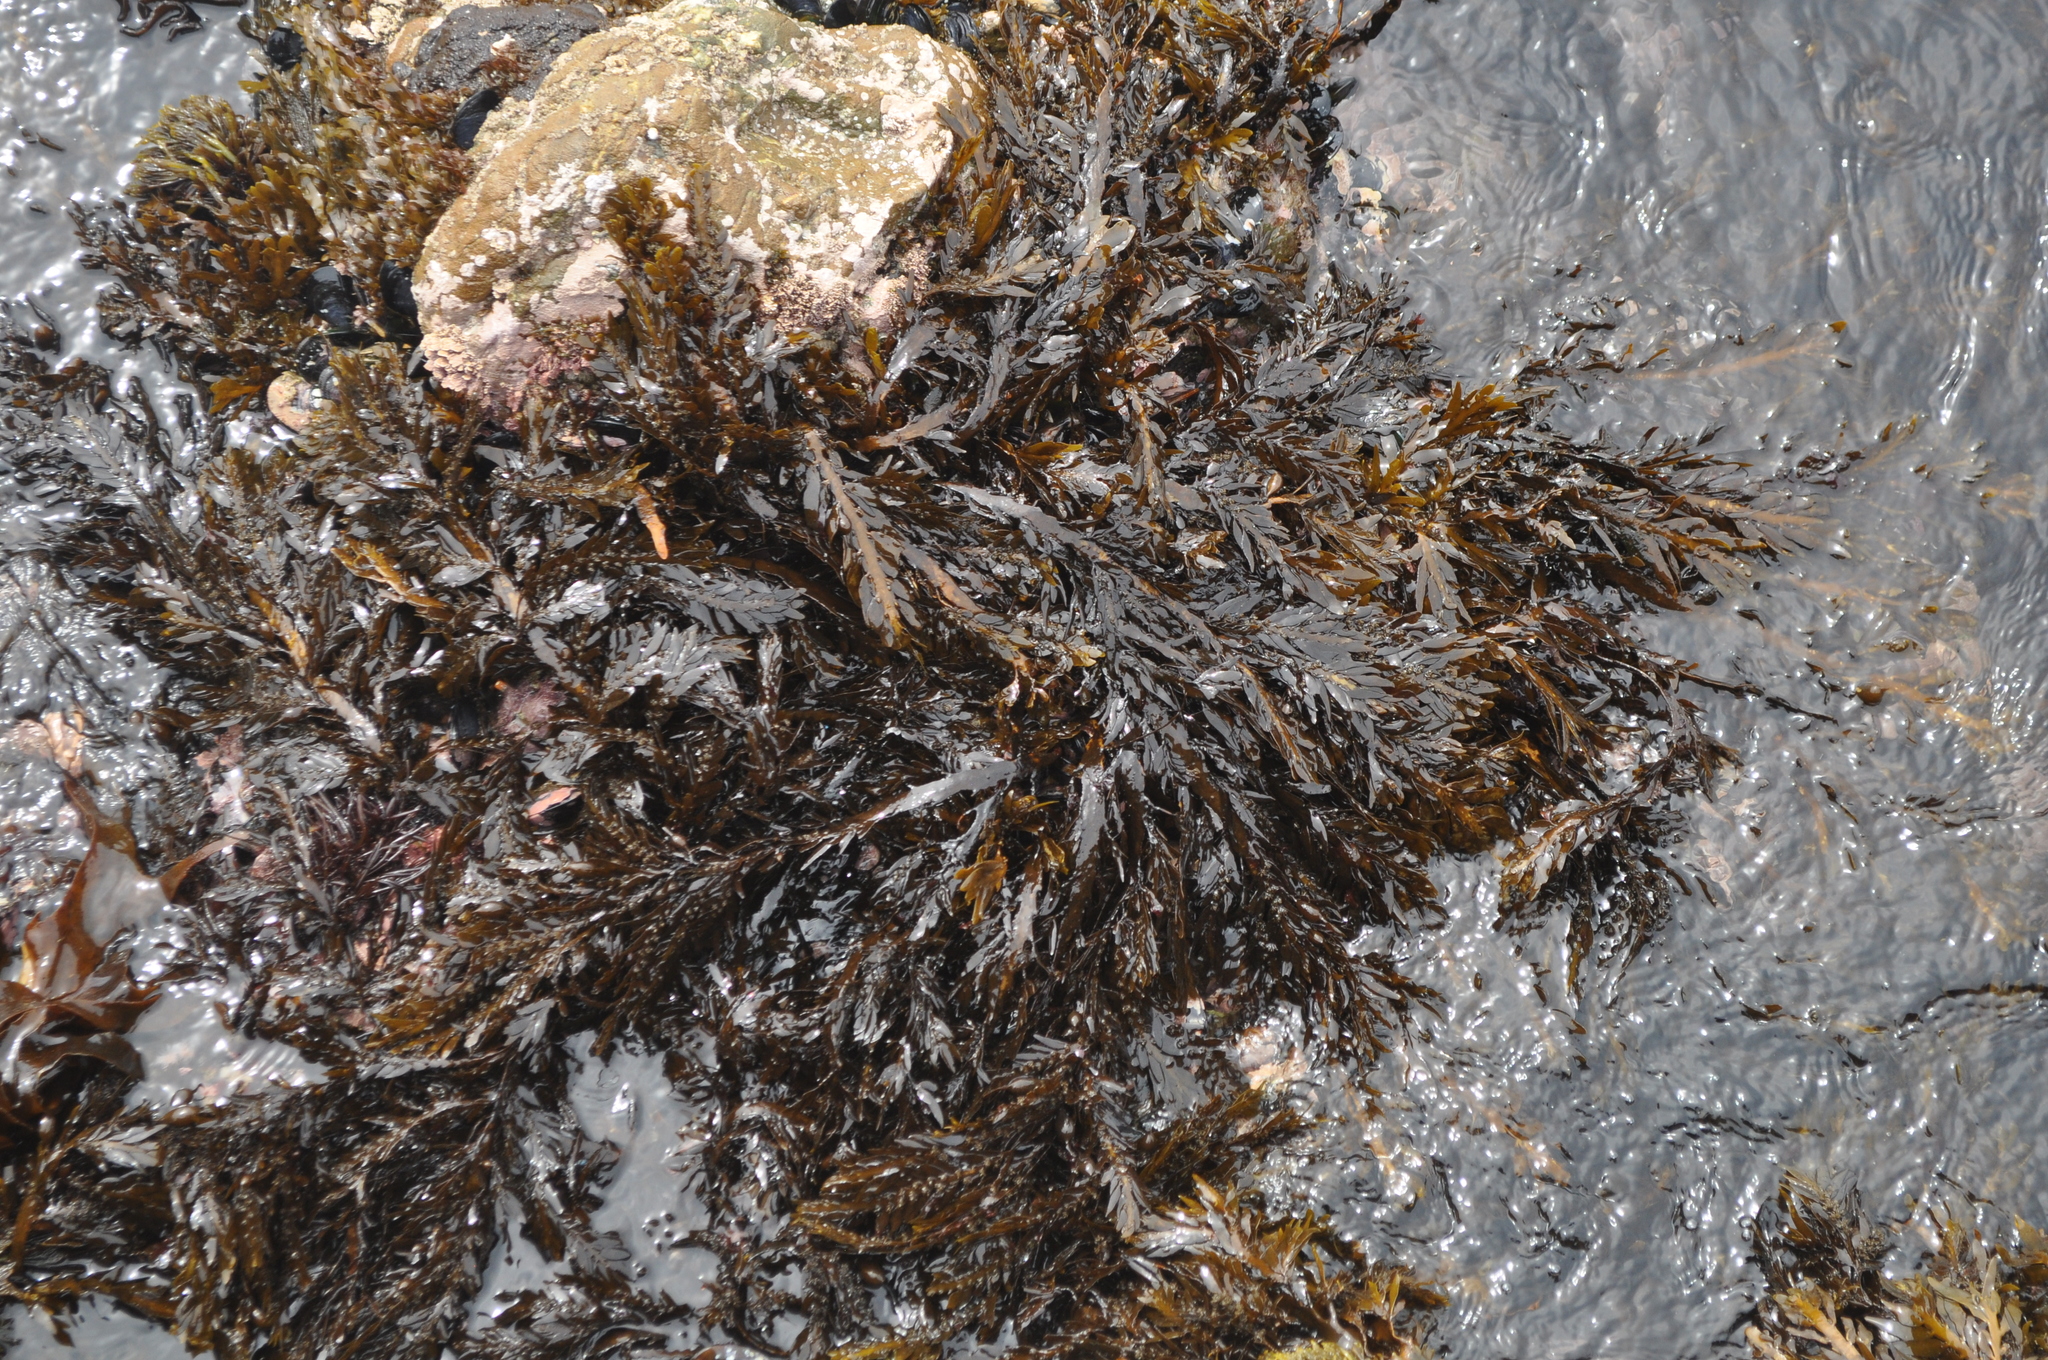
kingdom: Chromista
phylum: Ochrophyta
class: Phaeophyceae
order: Fucales
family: Sargassaceae
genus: Carpophyllum
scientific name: Carpophyllum maschalocarpum
